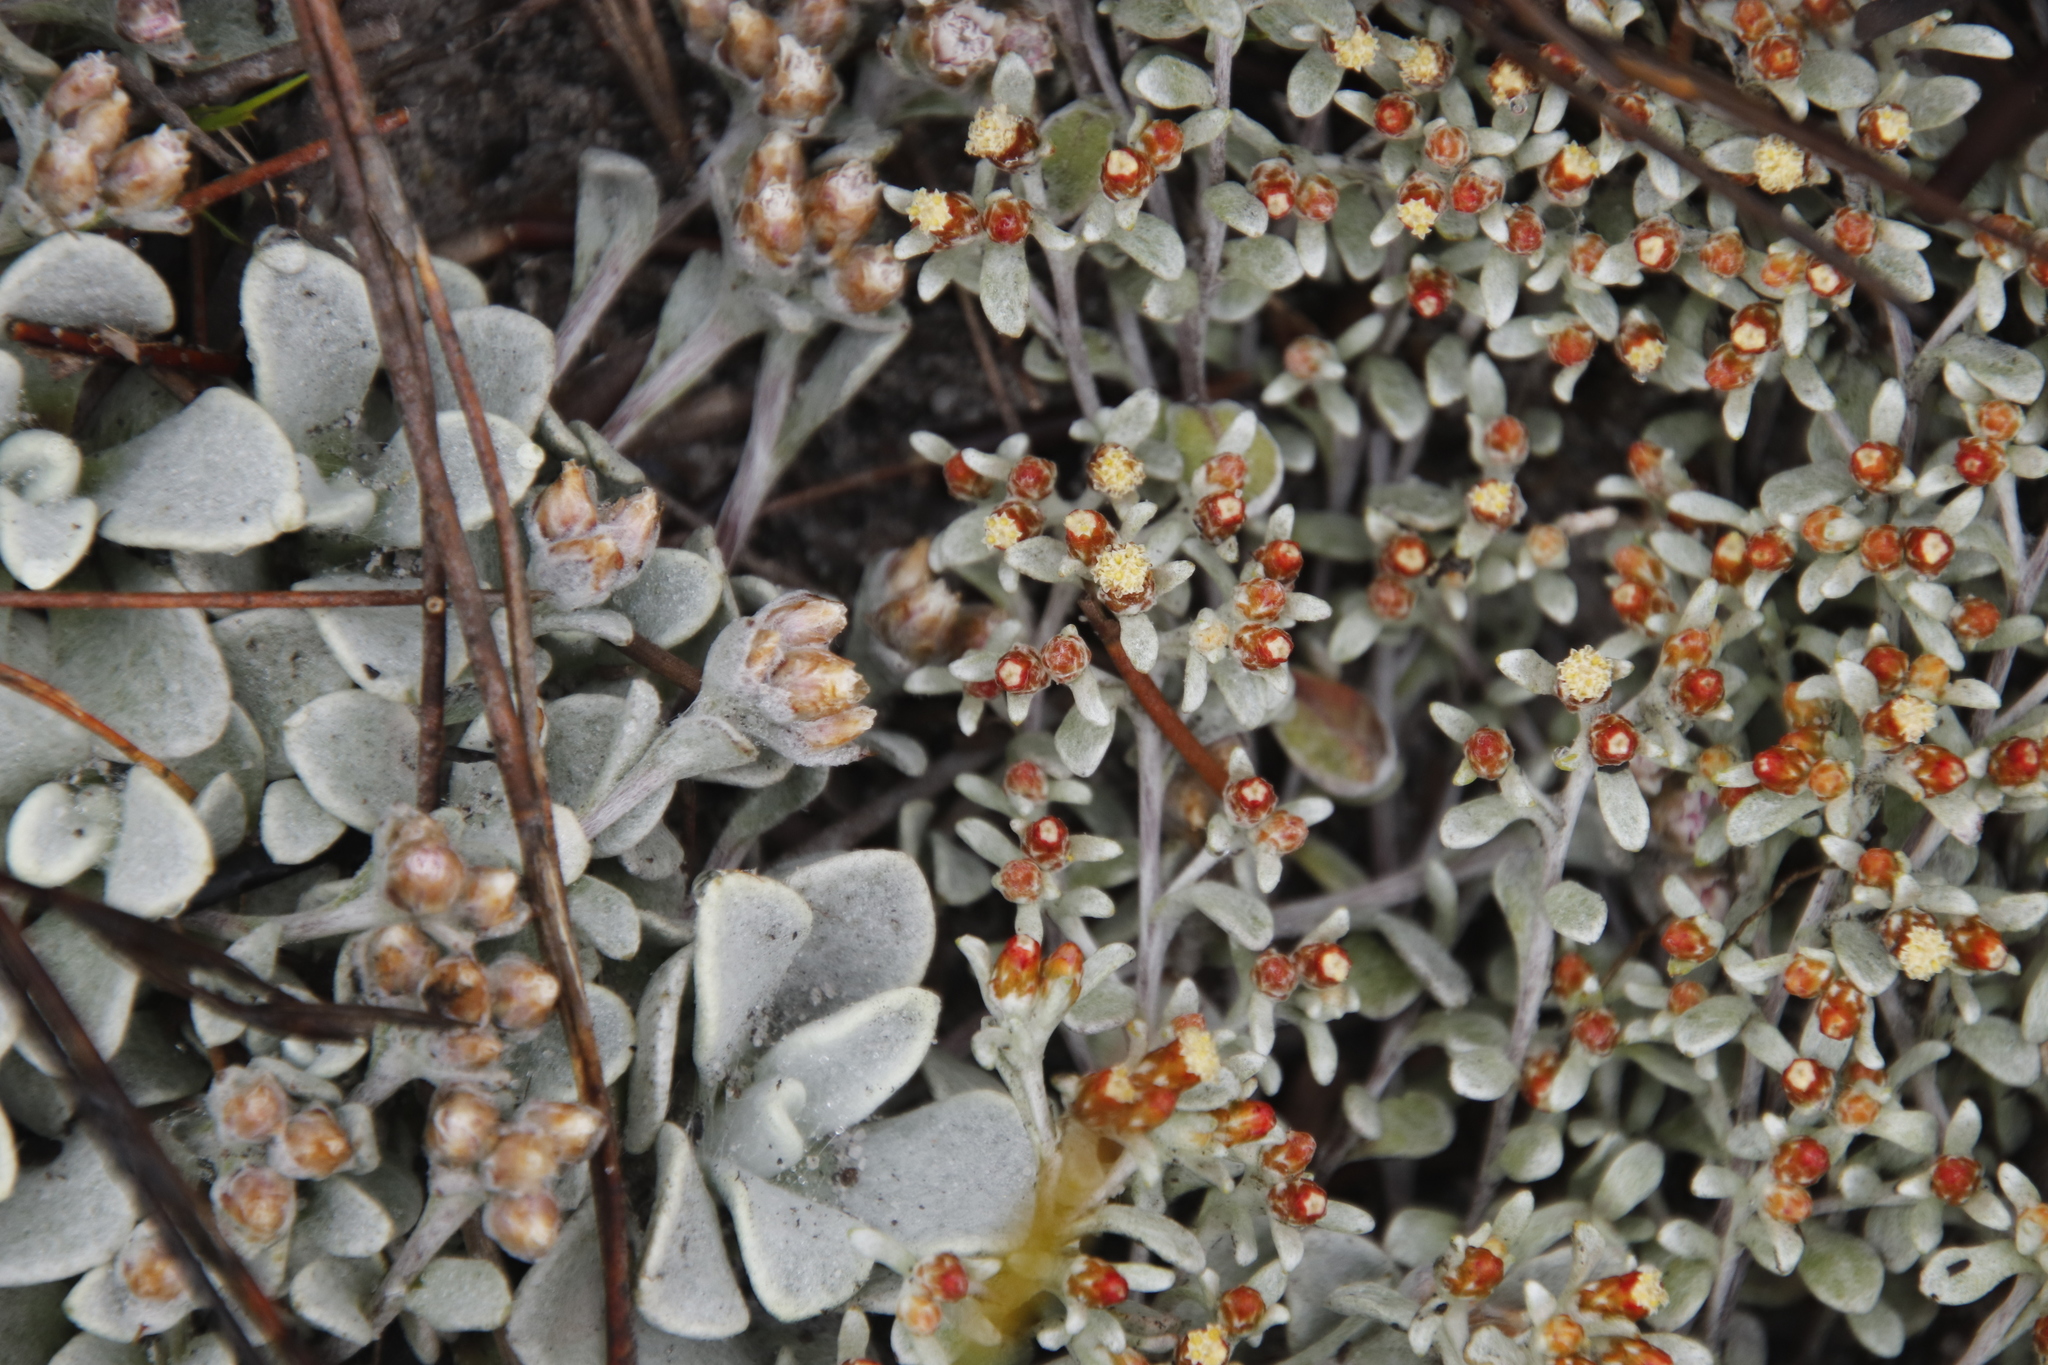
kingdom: Plantae
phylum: Tracheophyta
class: Magnoliopsida
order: Asterales
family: Asteraceae
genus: Helichrysum
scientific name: Helichrysum tinctum
